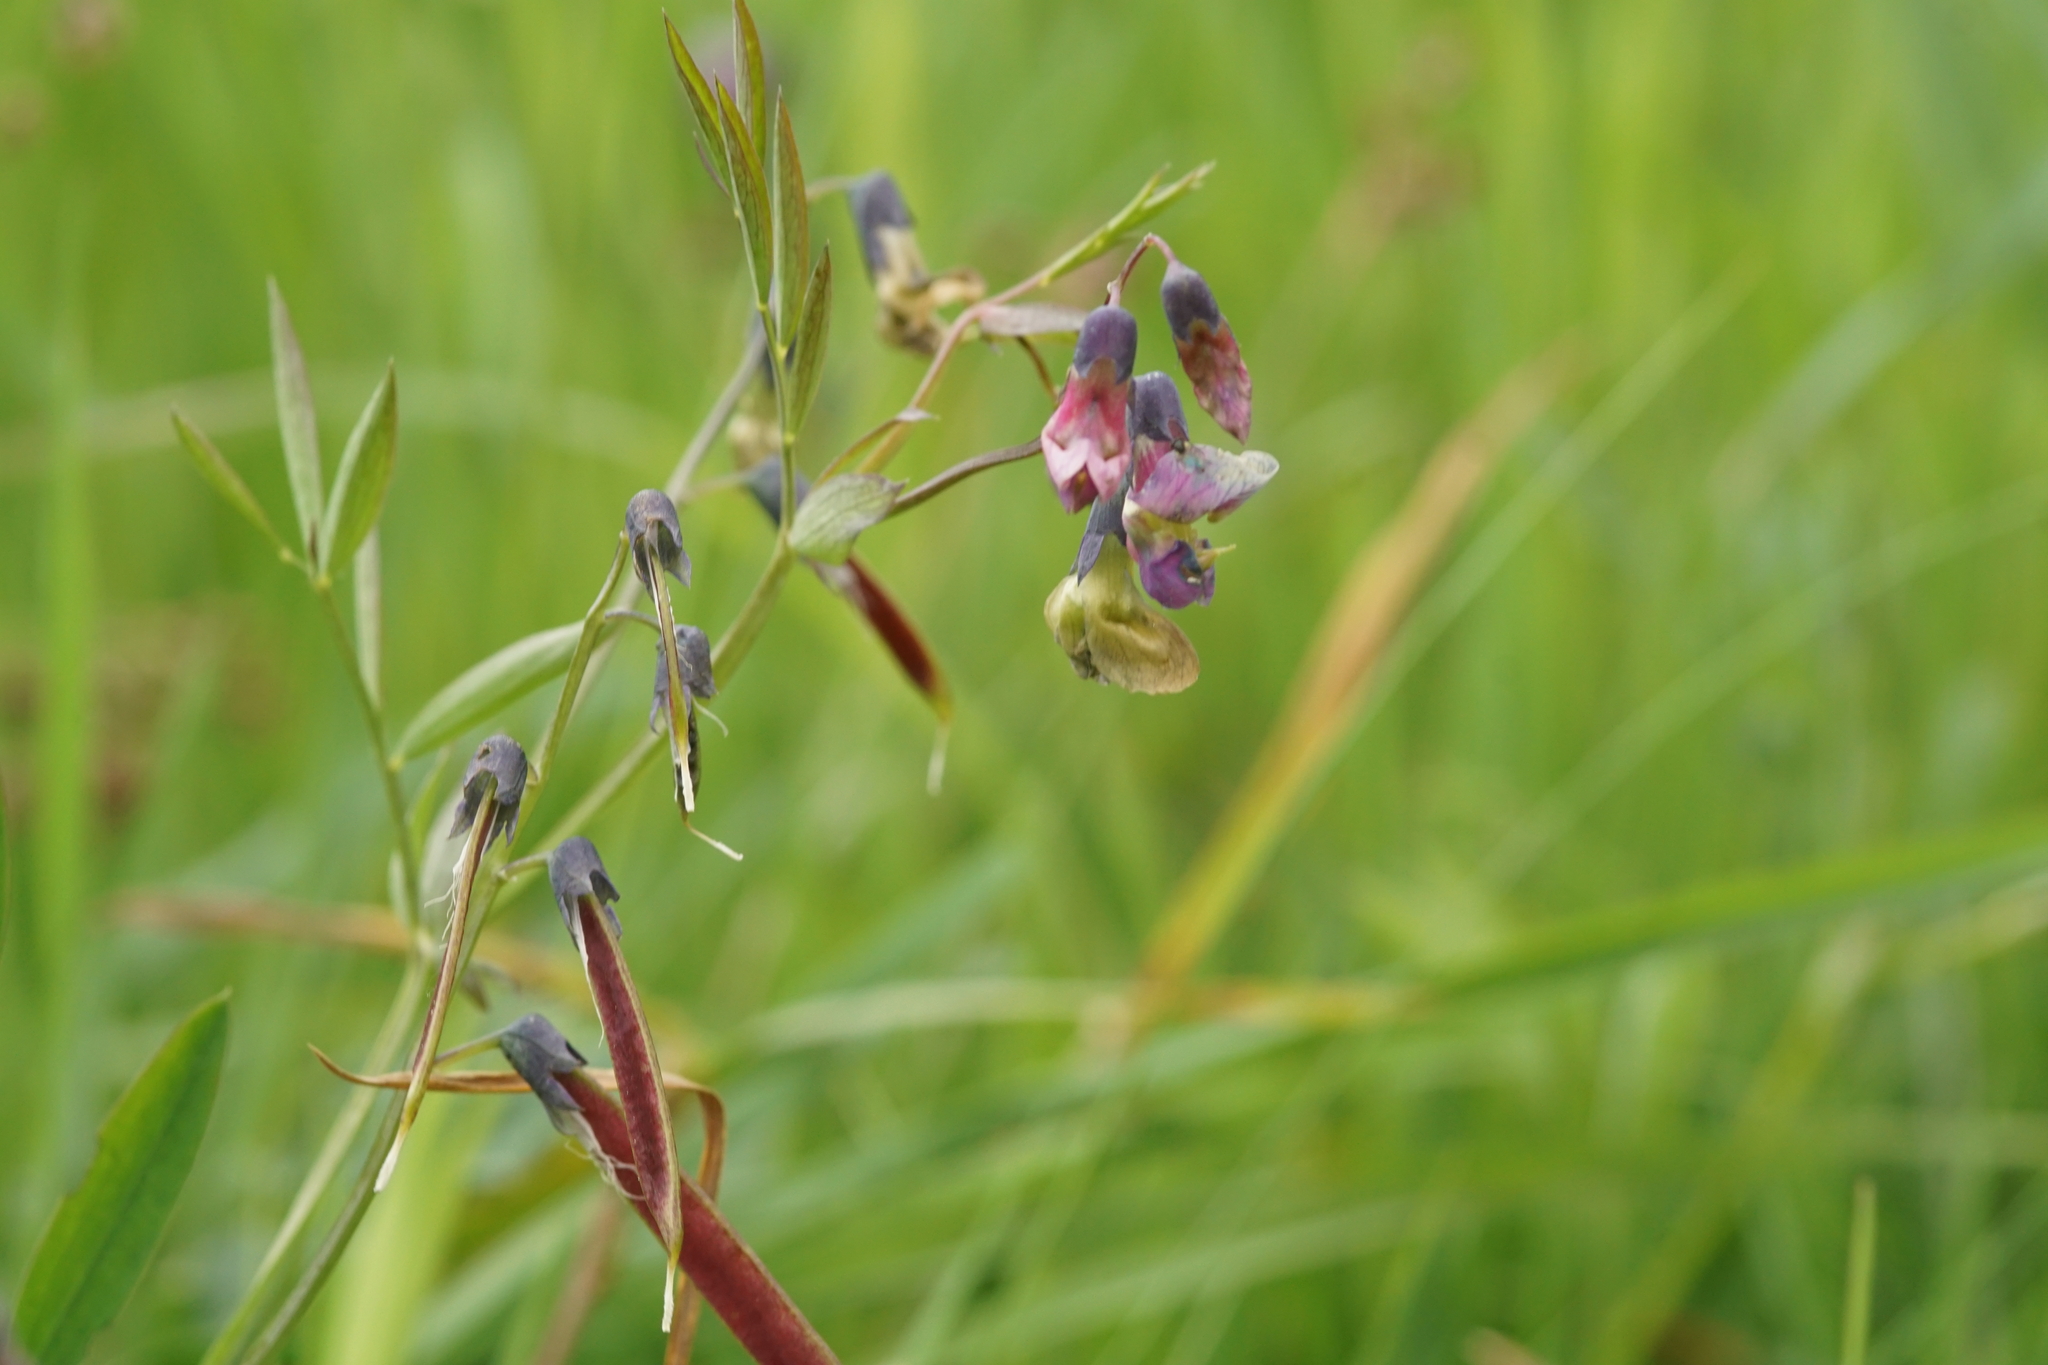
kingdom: Plantae
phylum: Tracheophyta
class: Magnoliopsida
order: Fabales
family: Fabaceae
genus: Lathyrus
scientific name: Lathyrus linifolius
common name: Bitter-vetch
